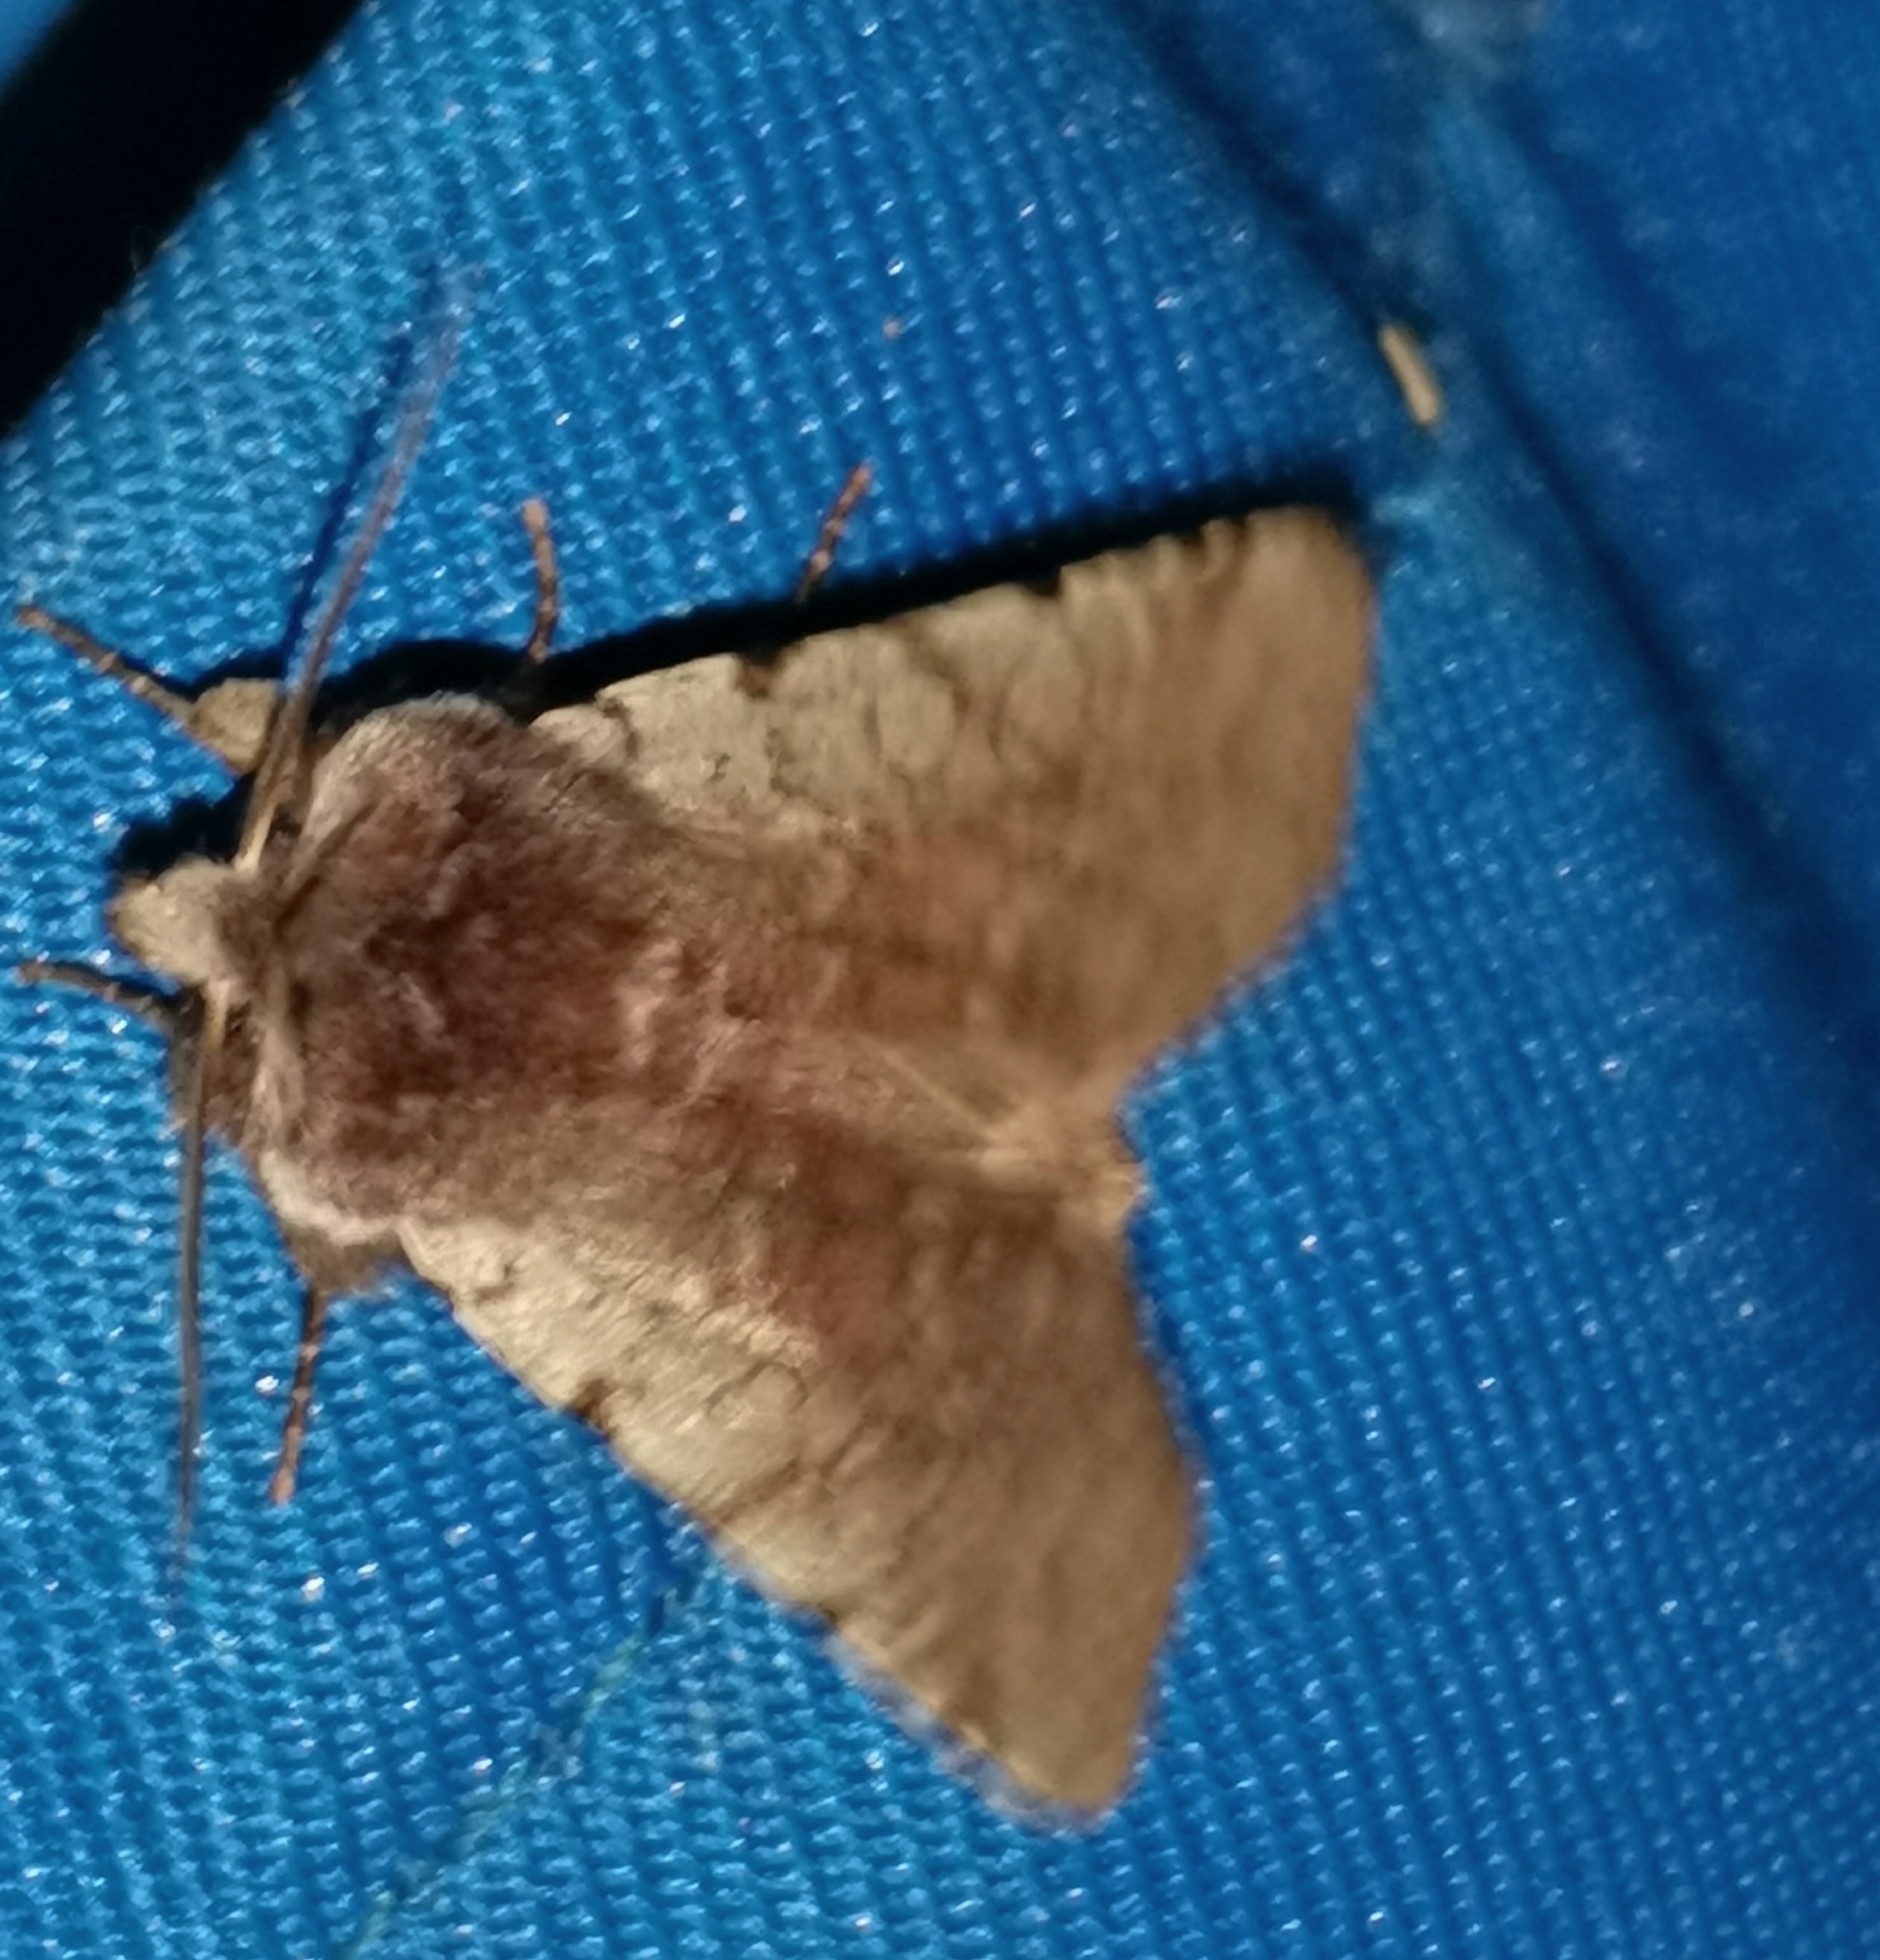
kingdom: Animalia
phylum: Arthropoda
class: Insecta
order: Lepidoptera
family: Noctuidae
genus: Cerastis
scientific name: Cerastis rubricosa
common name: Red chestnut
